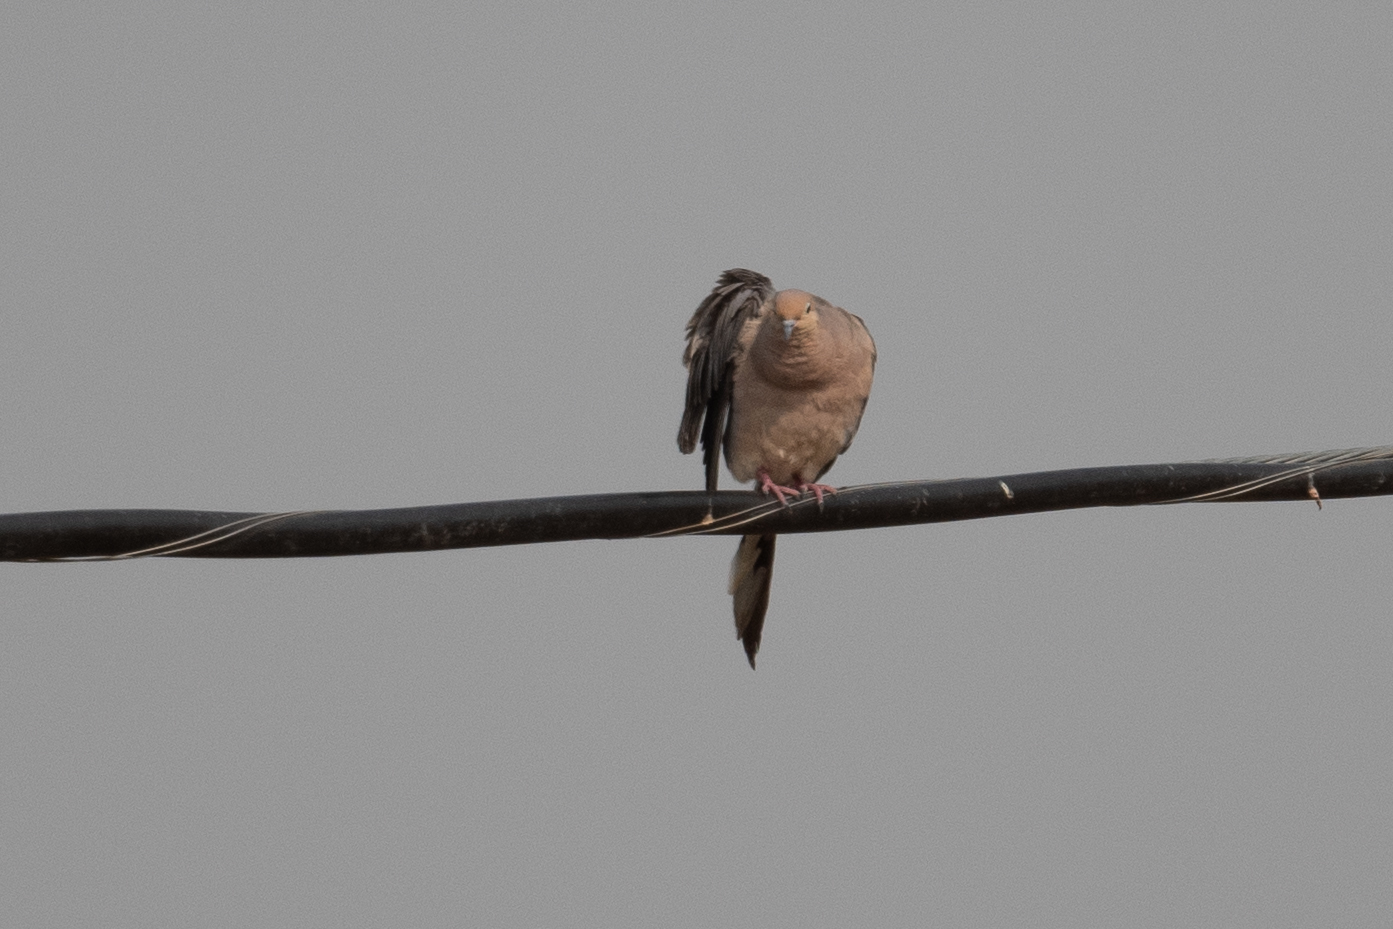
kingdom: Animalia
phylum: Chordata
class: Aves
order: Columbiformes
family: Columbidae
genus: Zenaida
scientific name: Zenaida macroura
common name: Mourning dove
